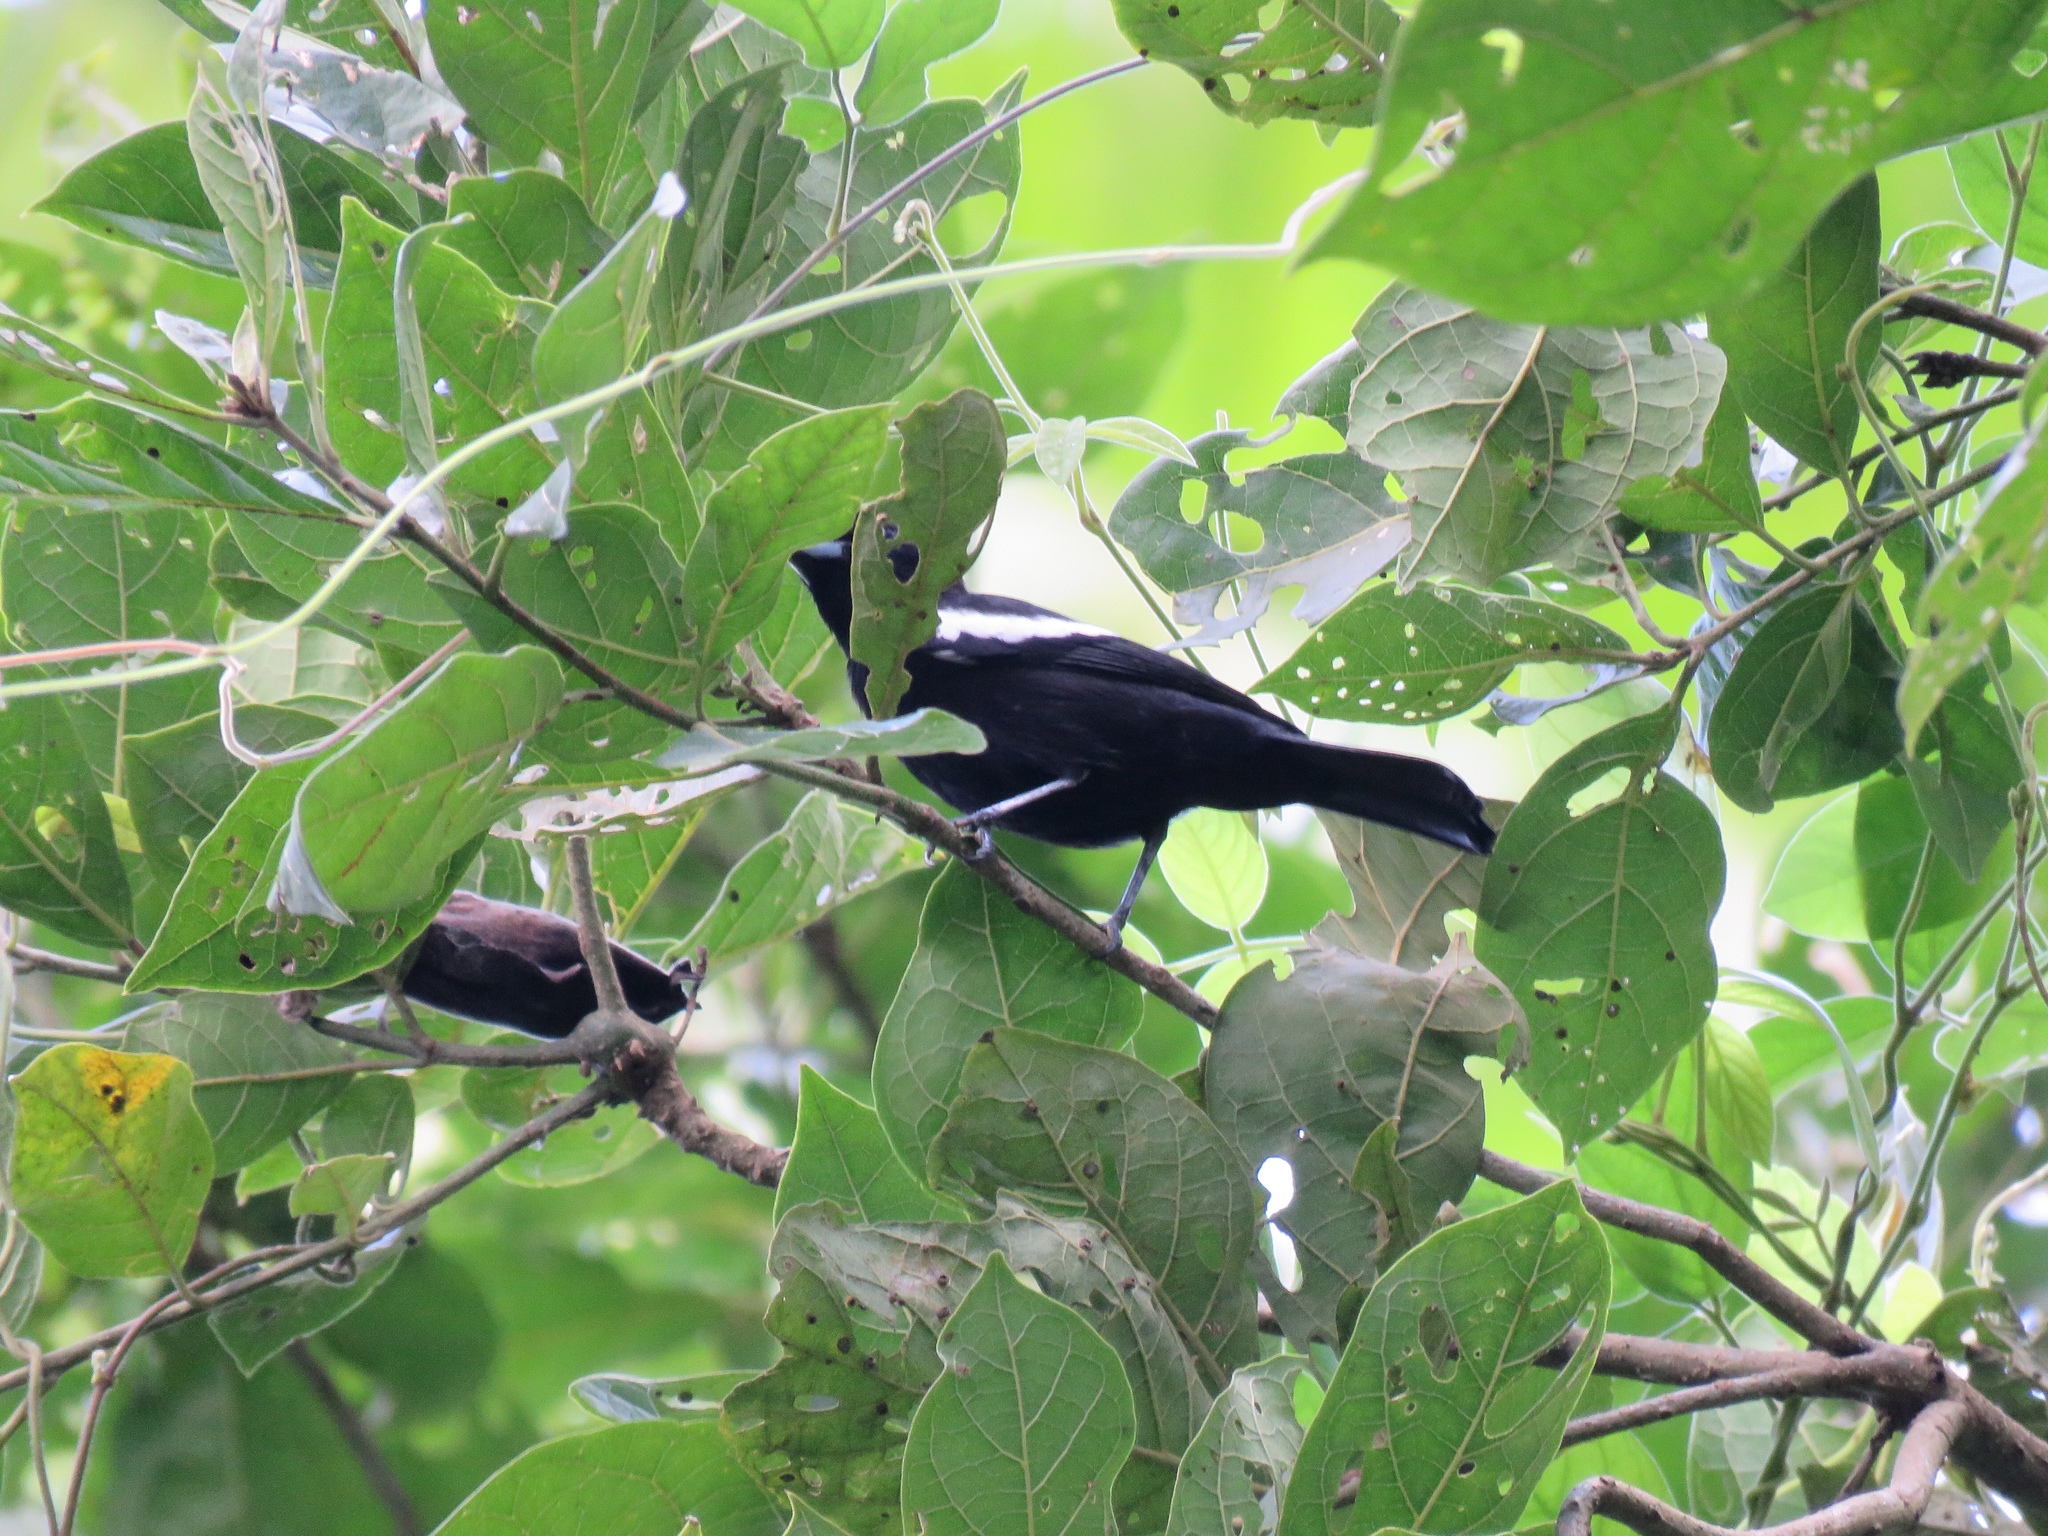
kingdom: Animalia
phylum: Chordata
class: Aves
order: Passeriformes
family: Thraupidae
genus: Loriotus
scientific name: Loriotus luctuosus
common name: White-shouldered tanager
